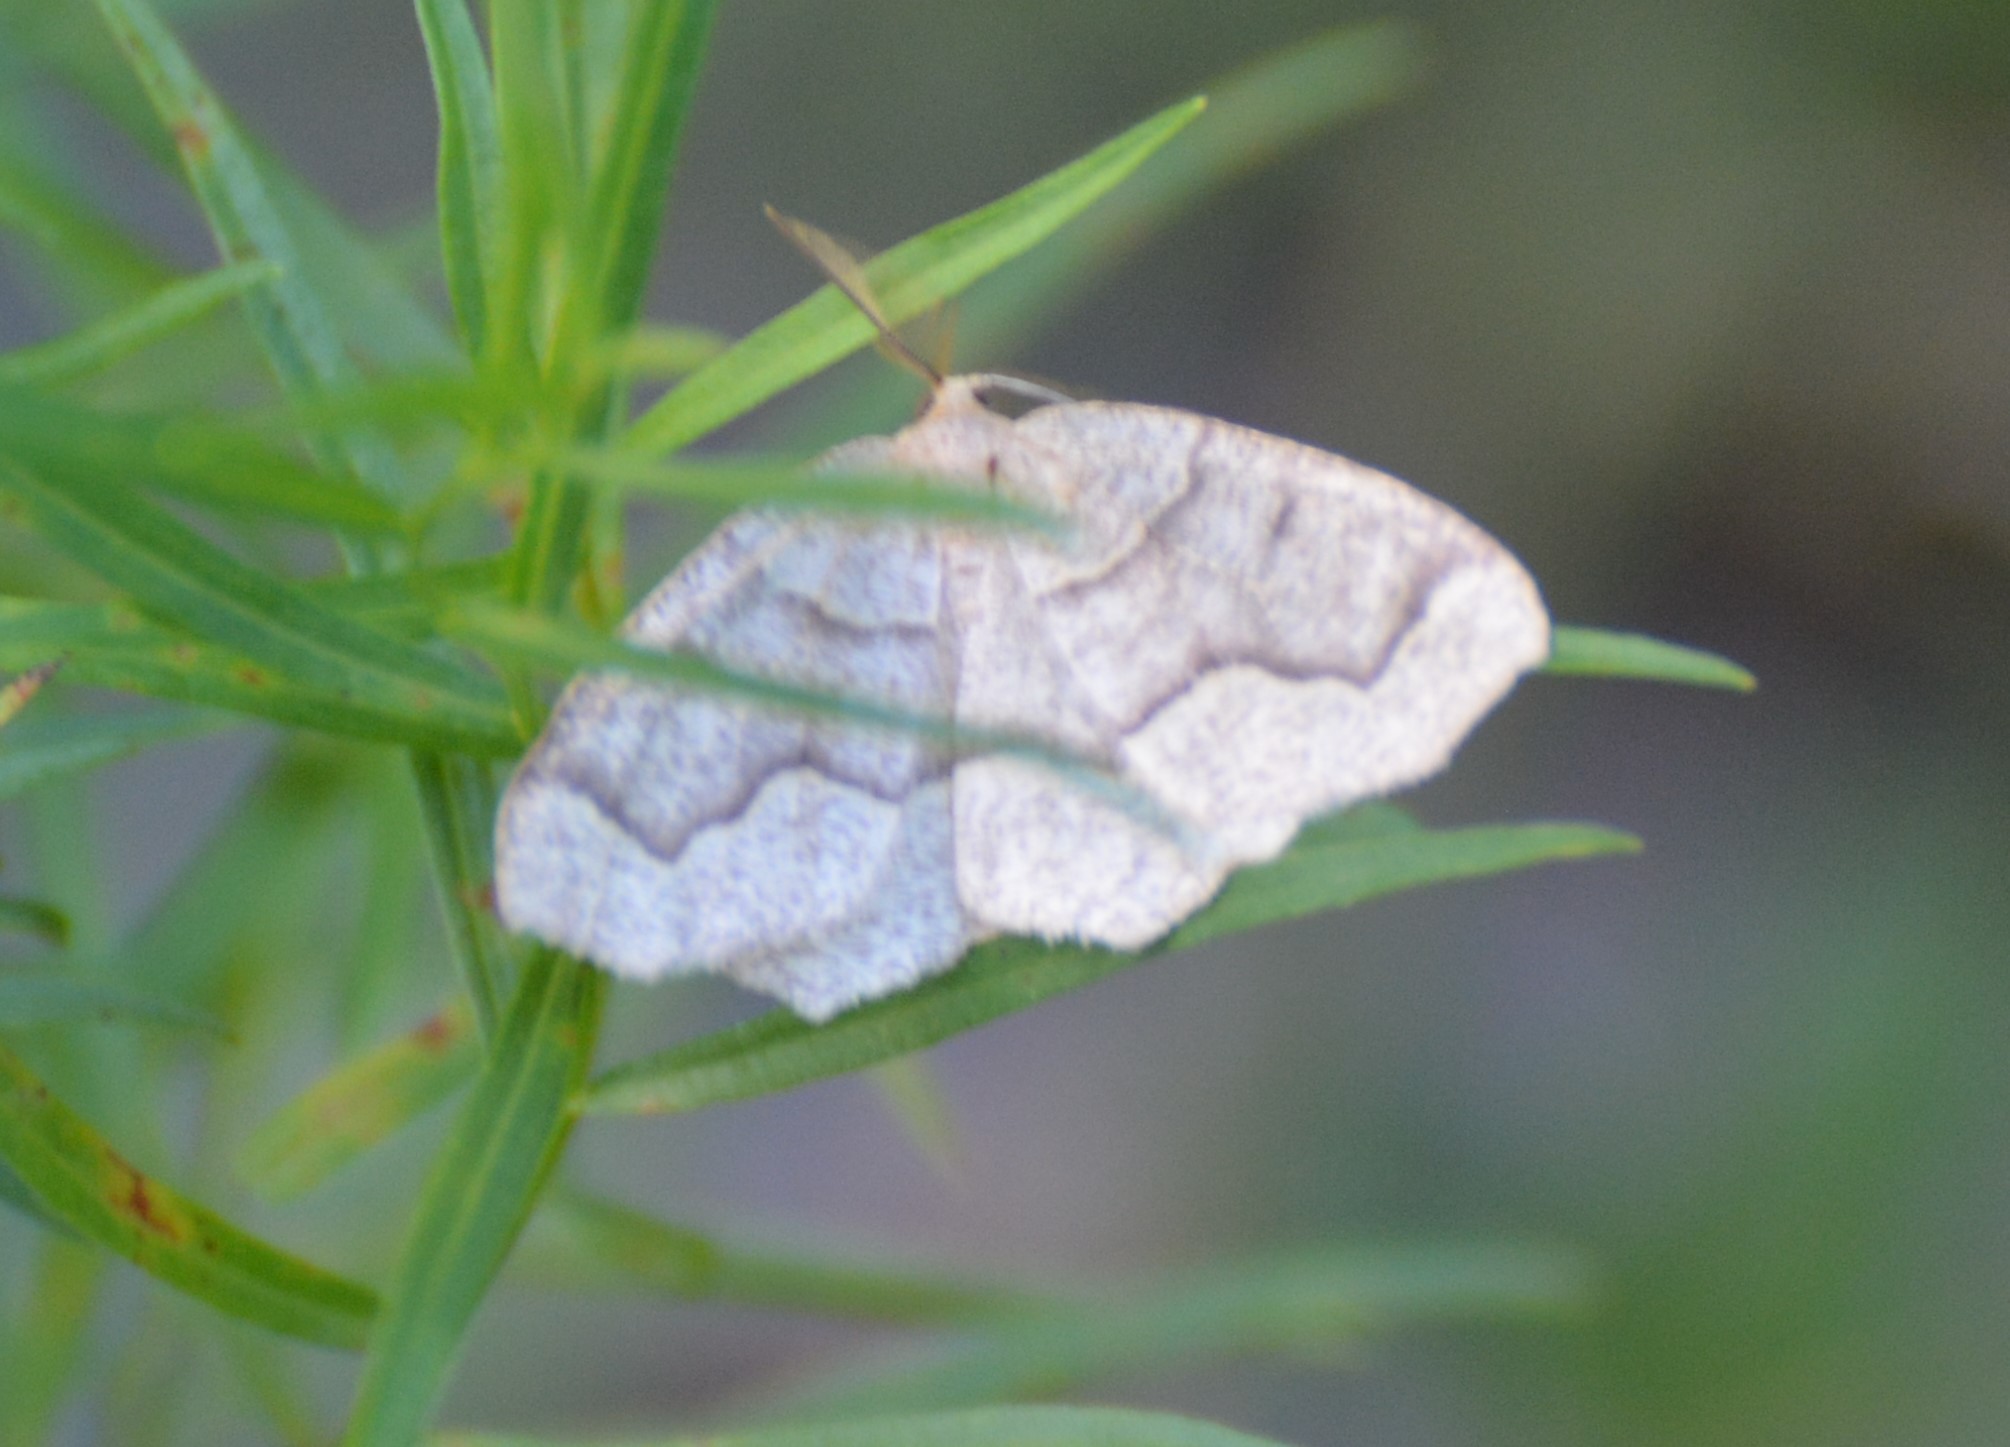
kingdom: Animalia
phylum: Arthropoda
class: Insecta
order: Lepidoptera
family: Geometridae
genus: Lambdina
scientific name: Lambdina fiscellaria
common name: Hemlock looper
